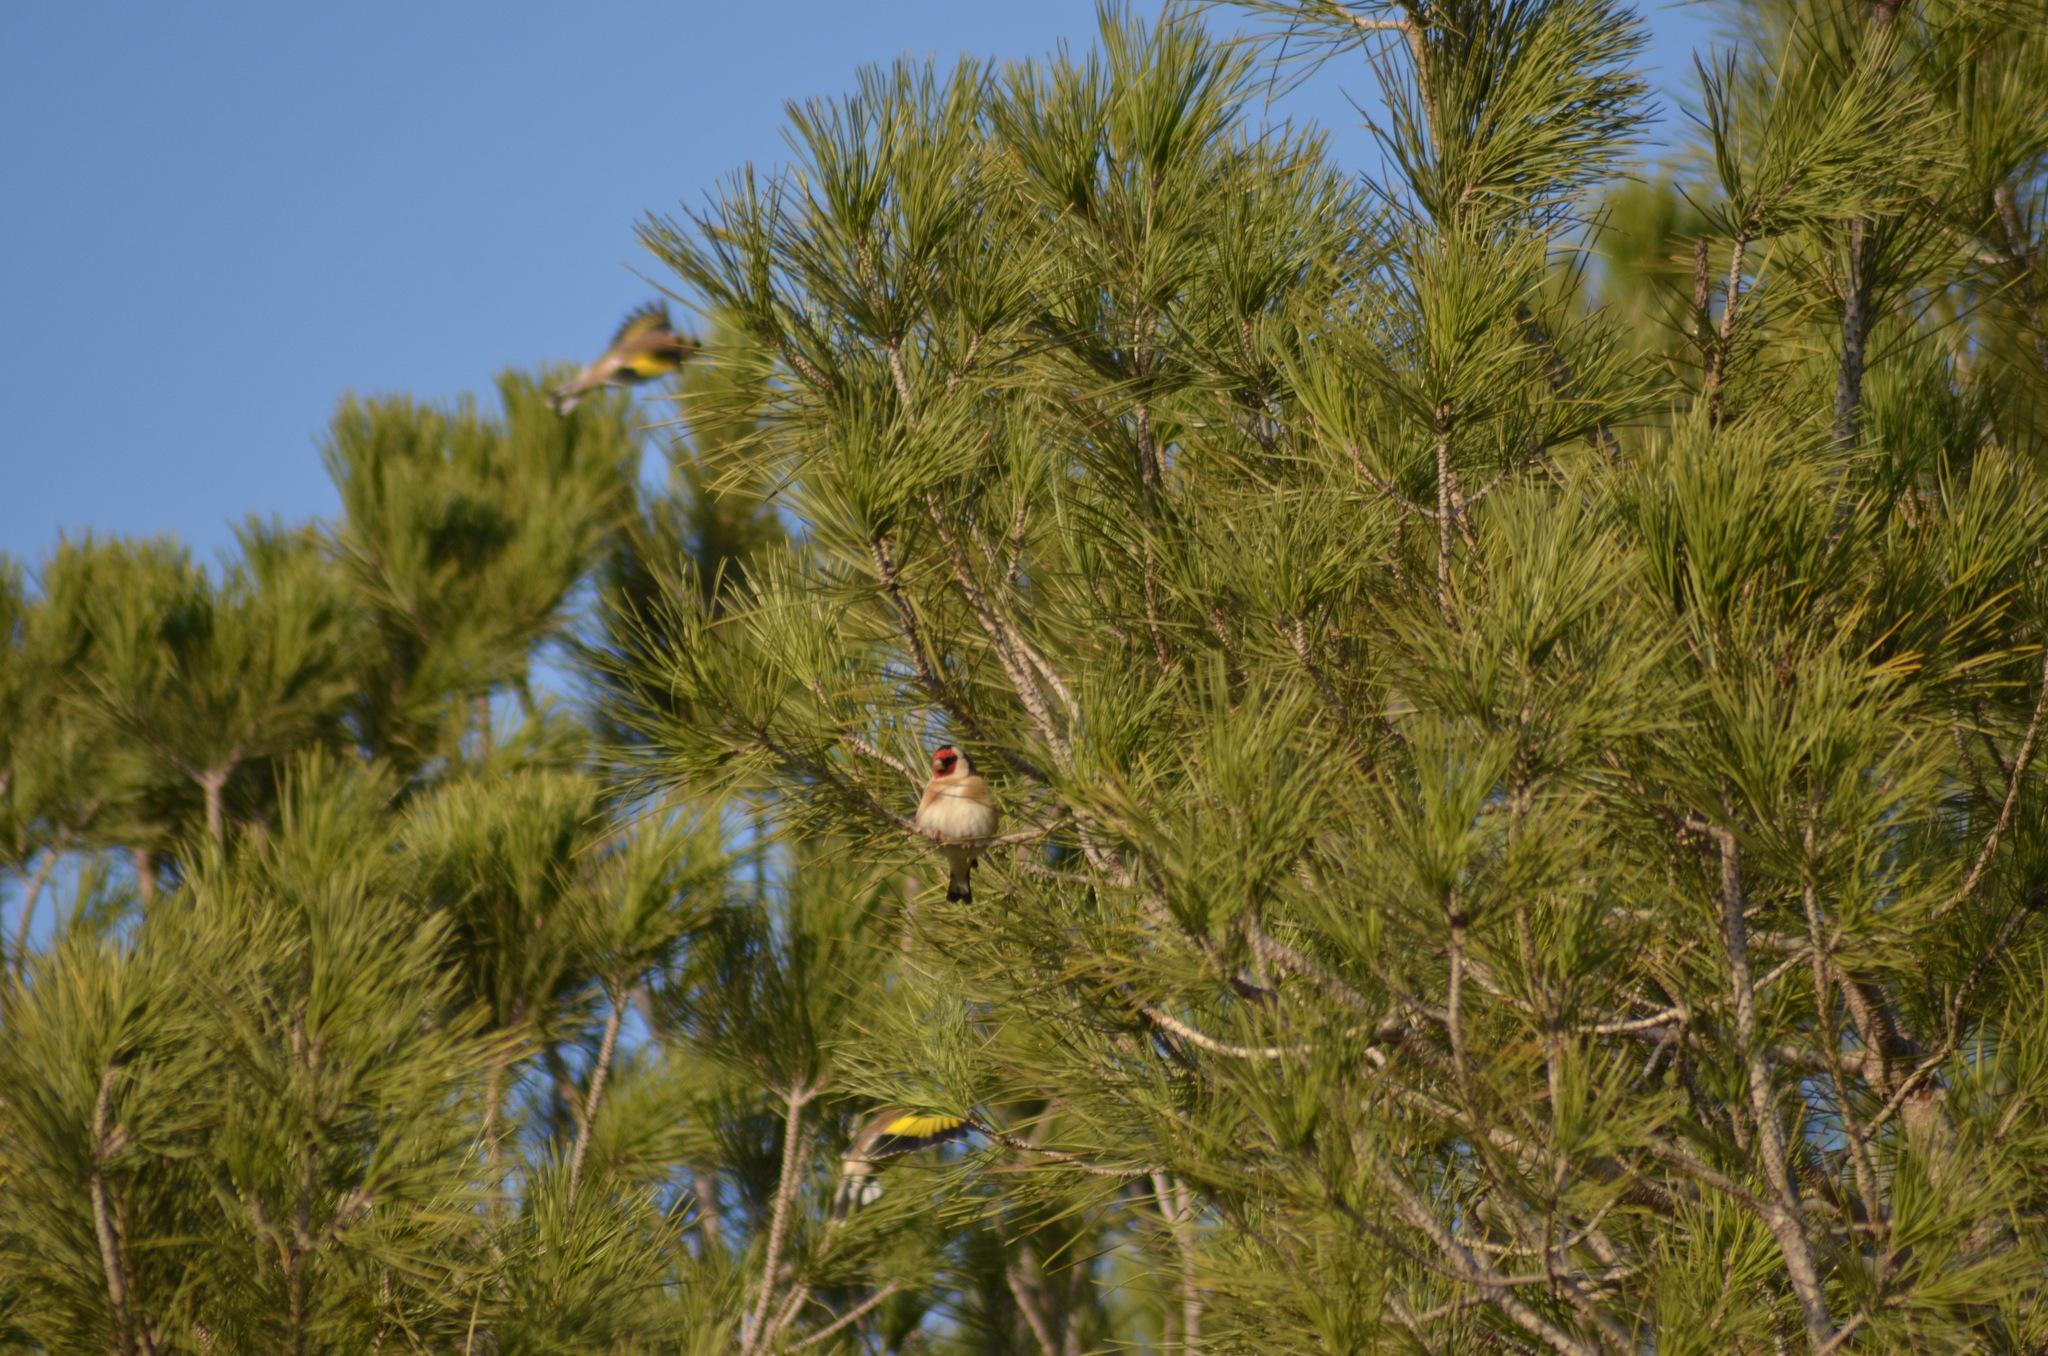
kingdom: Animalia
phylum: Chordata
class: Aves
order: Passeriformes
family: Fringillidae
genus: Carduelis
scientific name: Carduelis carduelis
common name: European goldfinch
